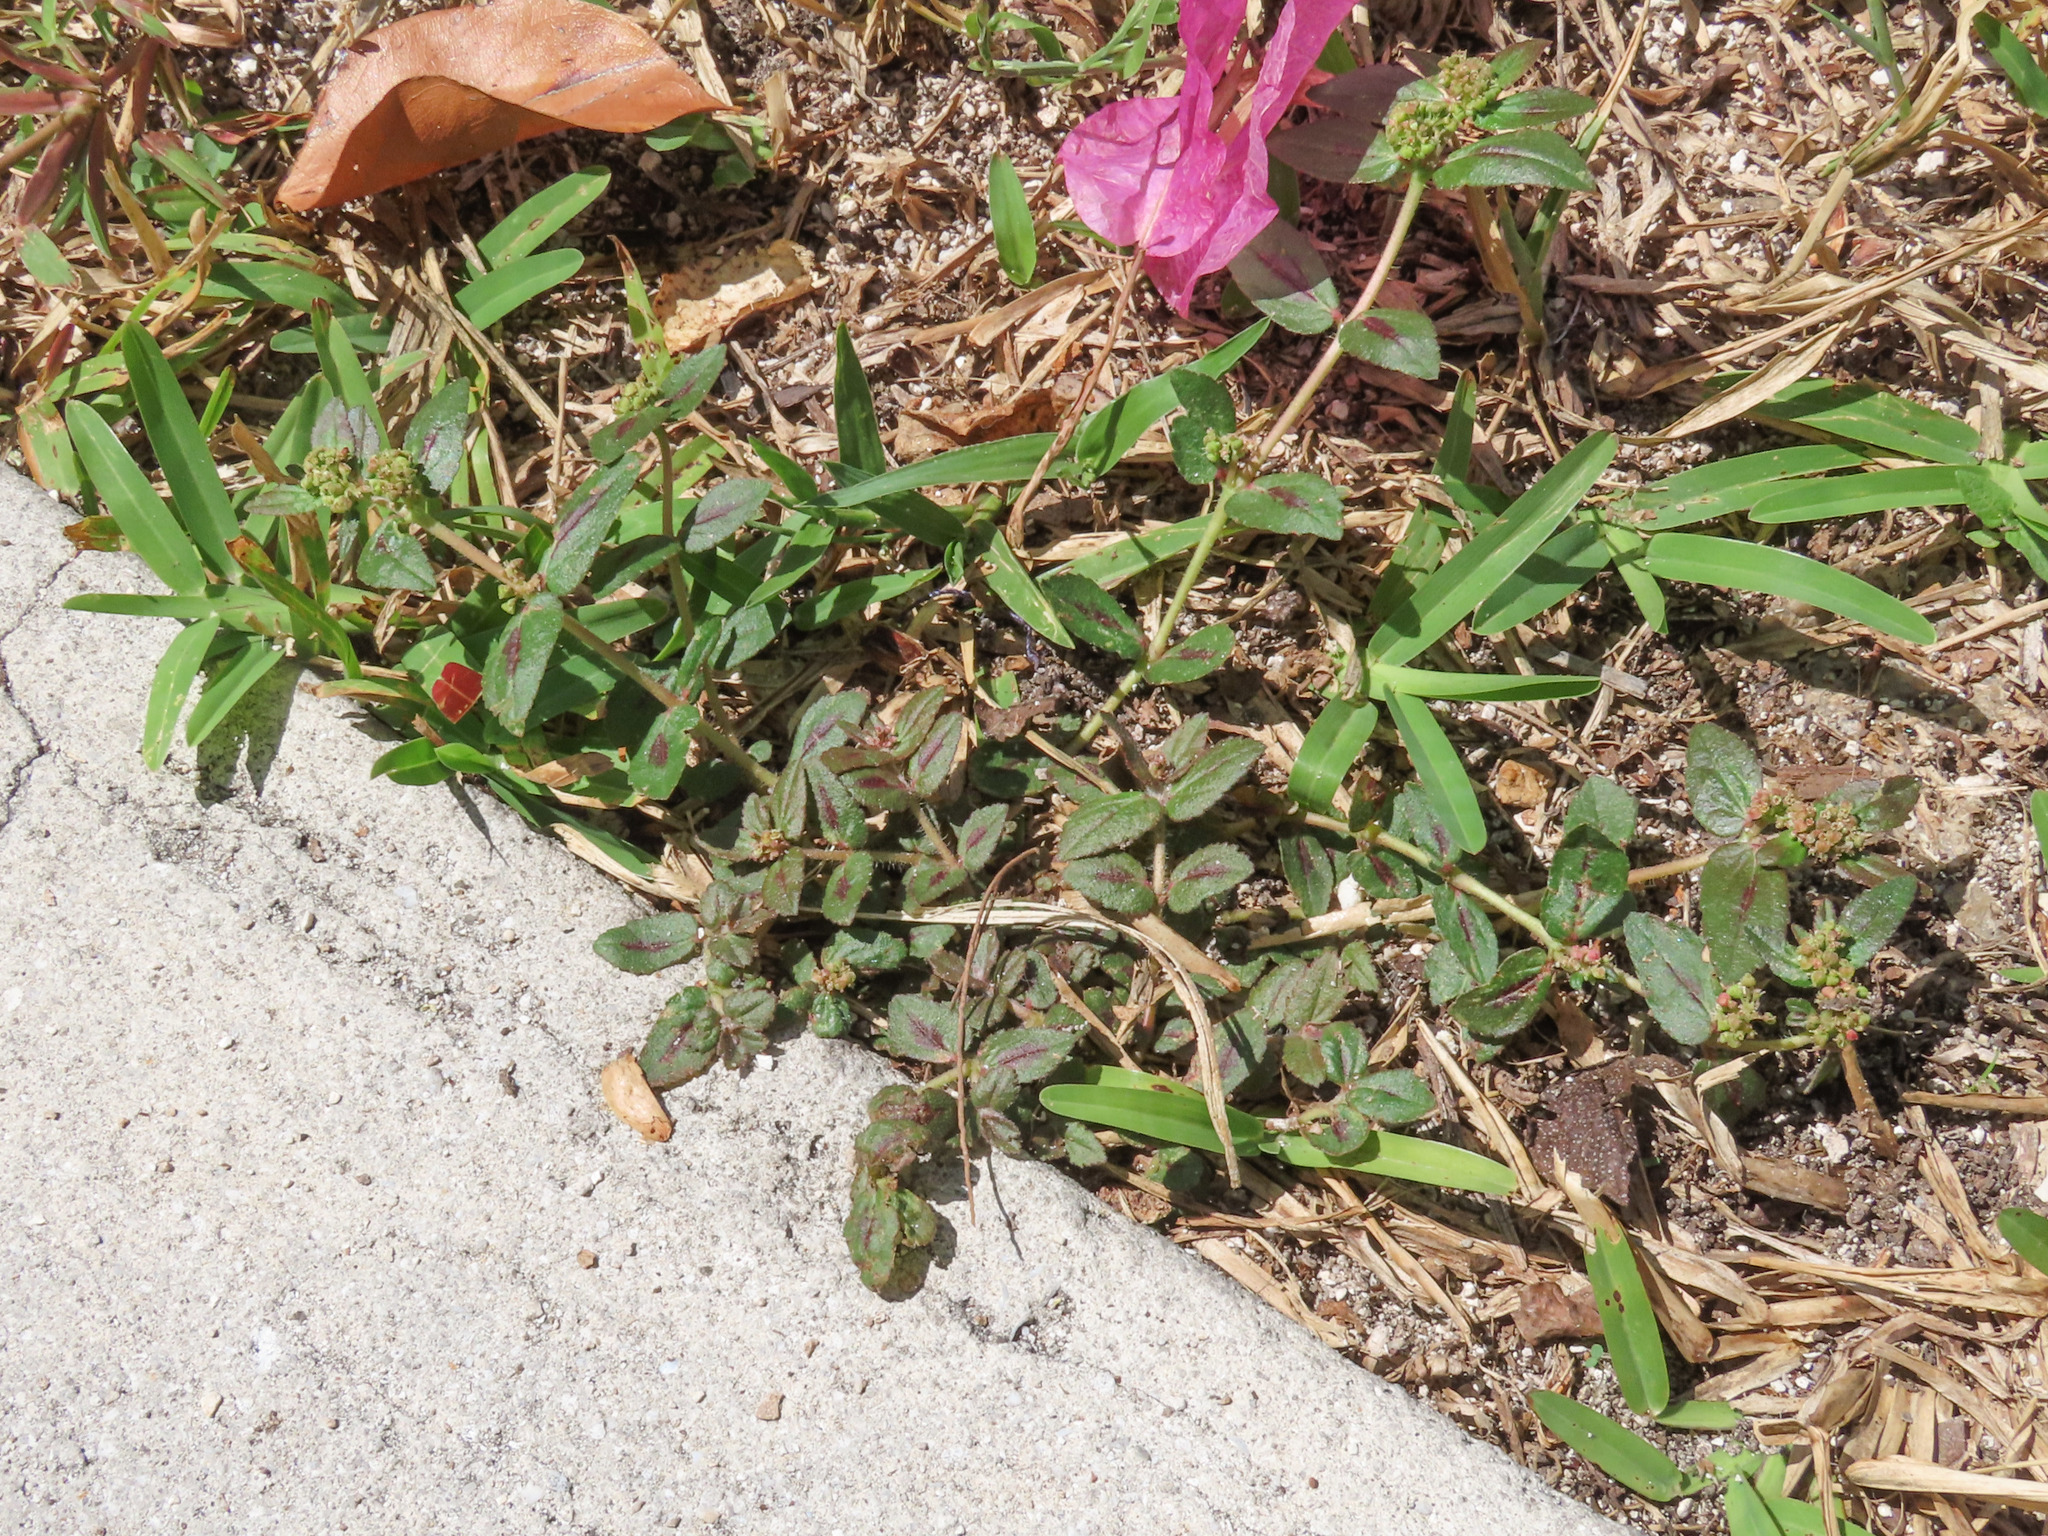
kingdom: Plantae
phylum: Tracheophyta
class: Magnoliopsida
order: Malpighiales
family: Euphorbiaceae
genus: Euphorbia
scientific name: Euphorbia hirta
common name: Pillpod sandmat
